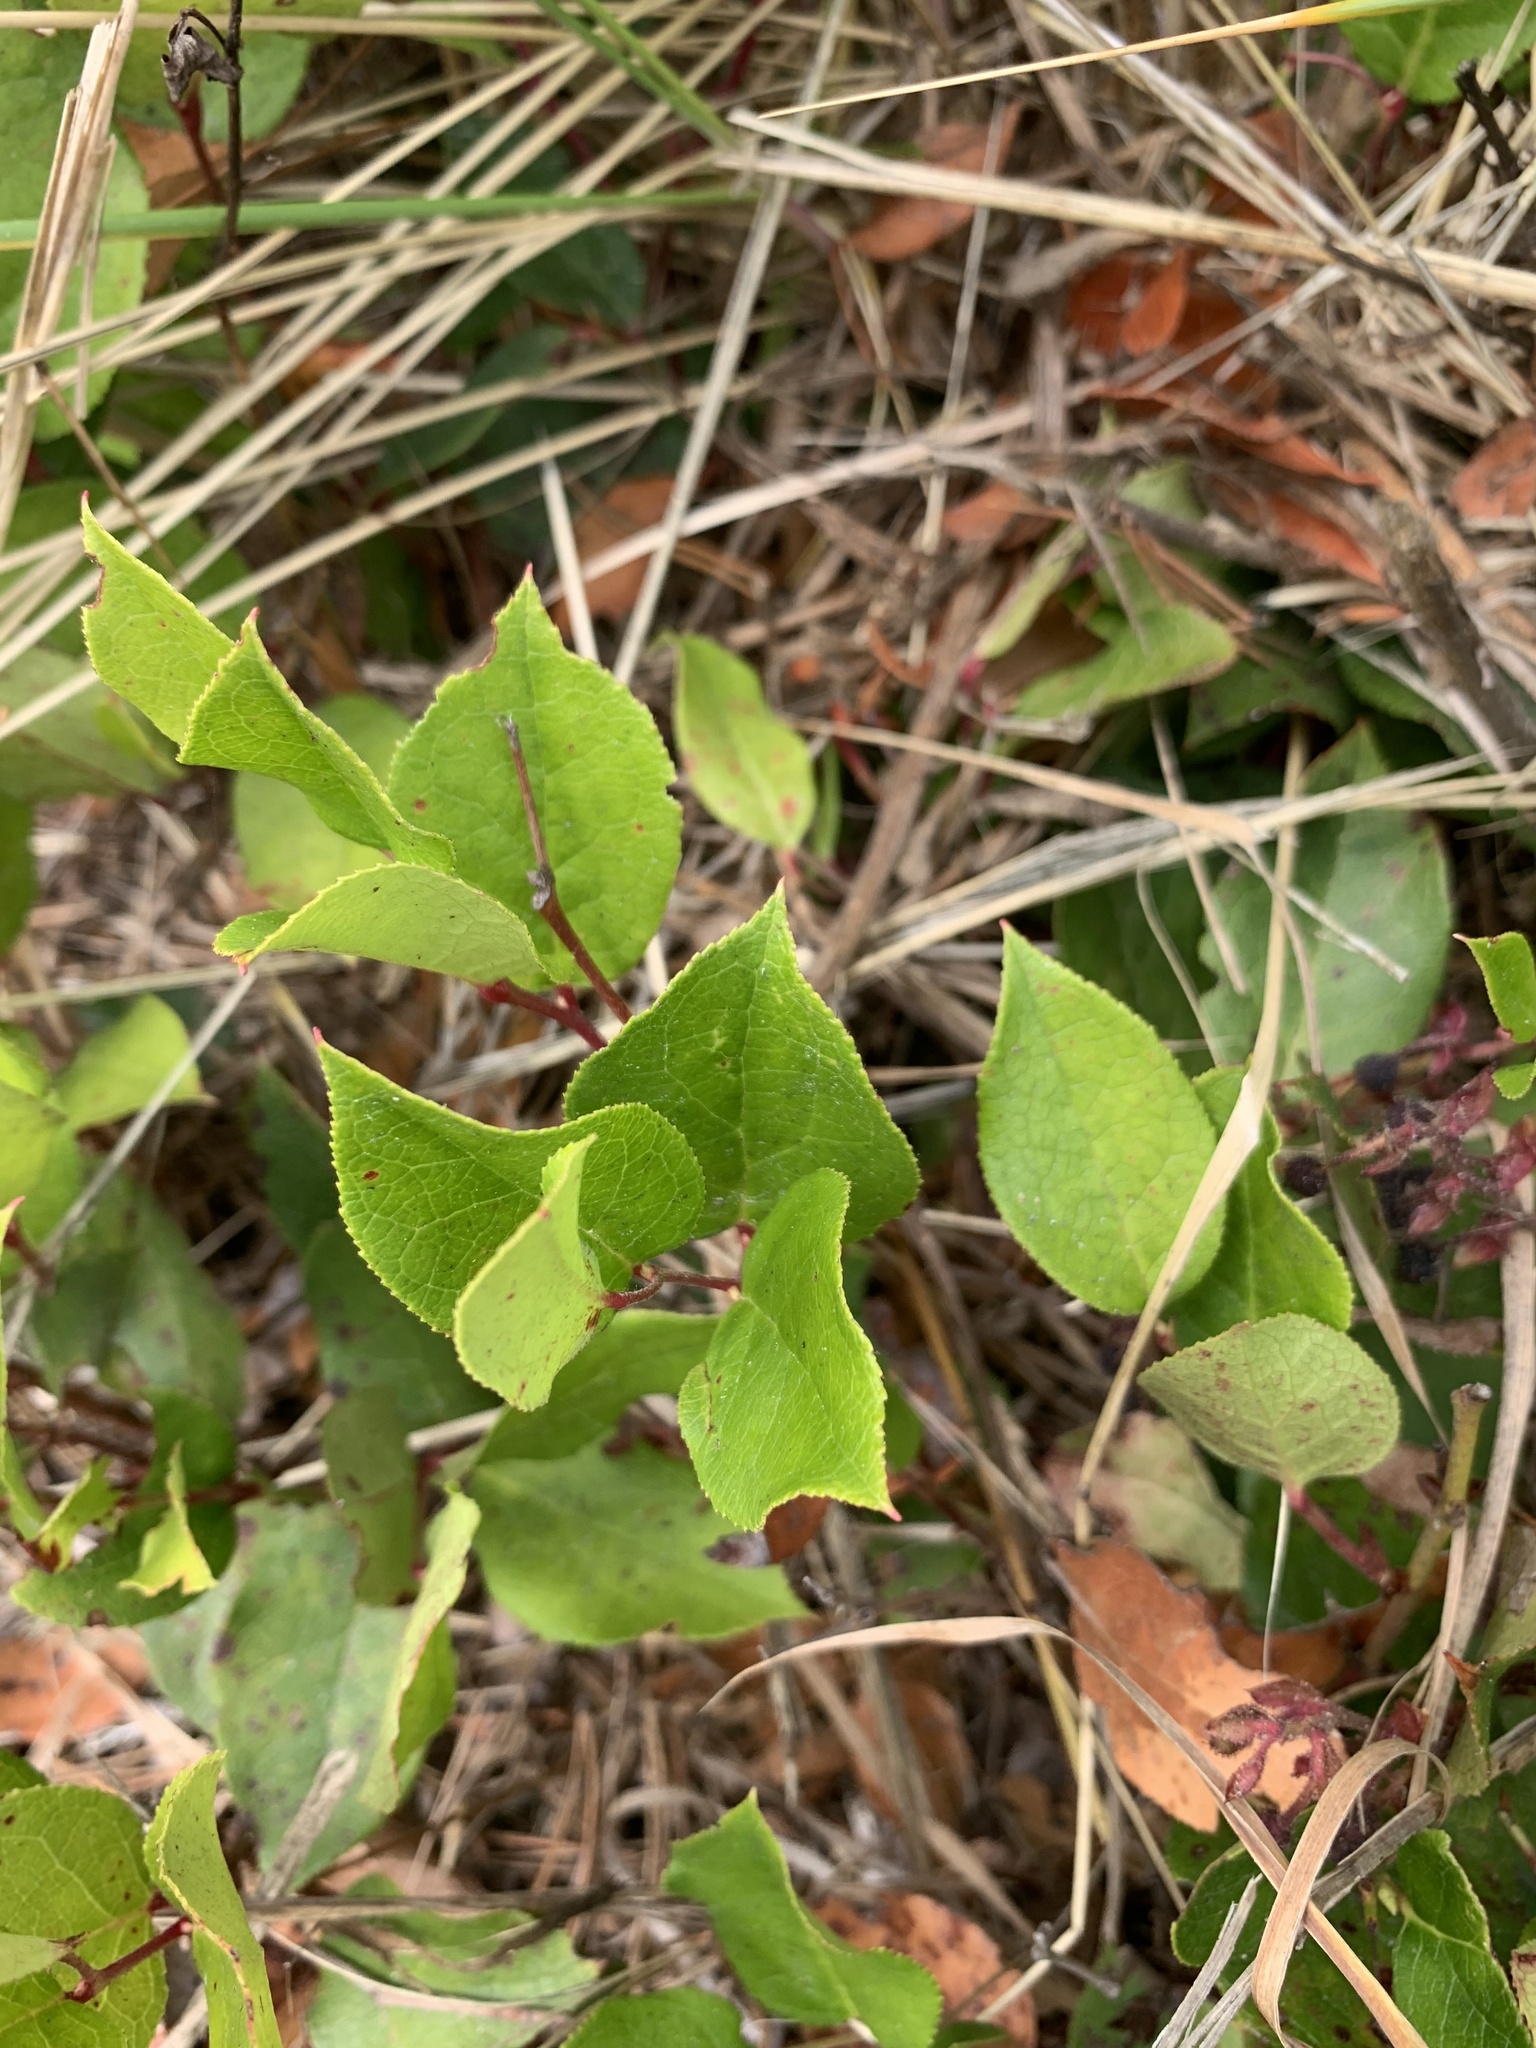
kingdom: Plantae
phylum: Tracheophyta
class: Magnoliopsida
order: Ericales
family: Ericaceae
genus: Gaultheria
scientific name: Gaultheria shallon
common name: Shallon
